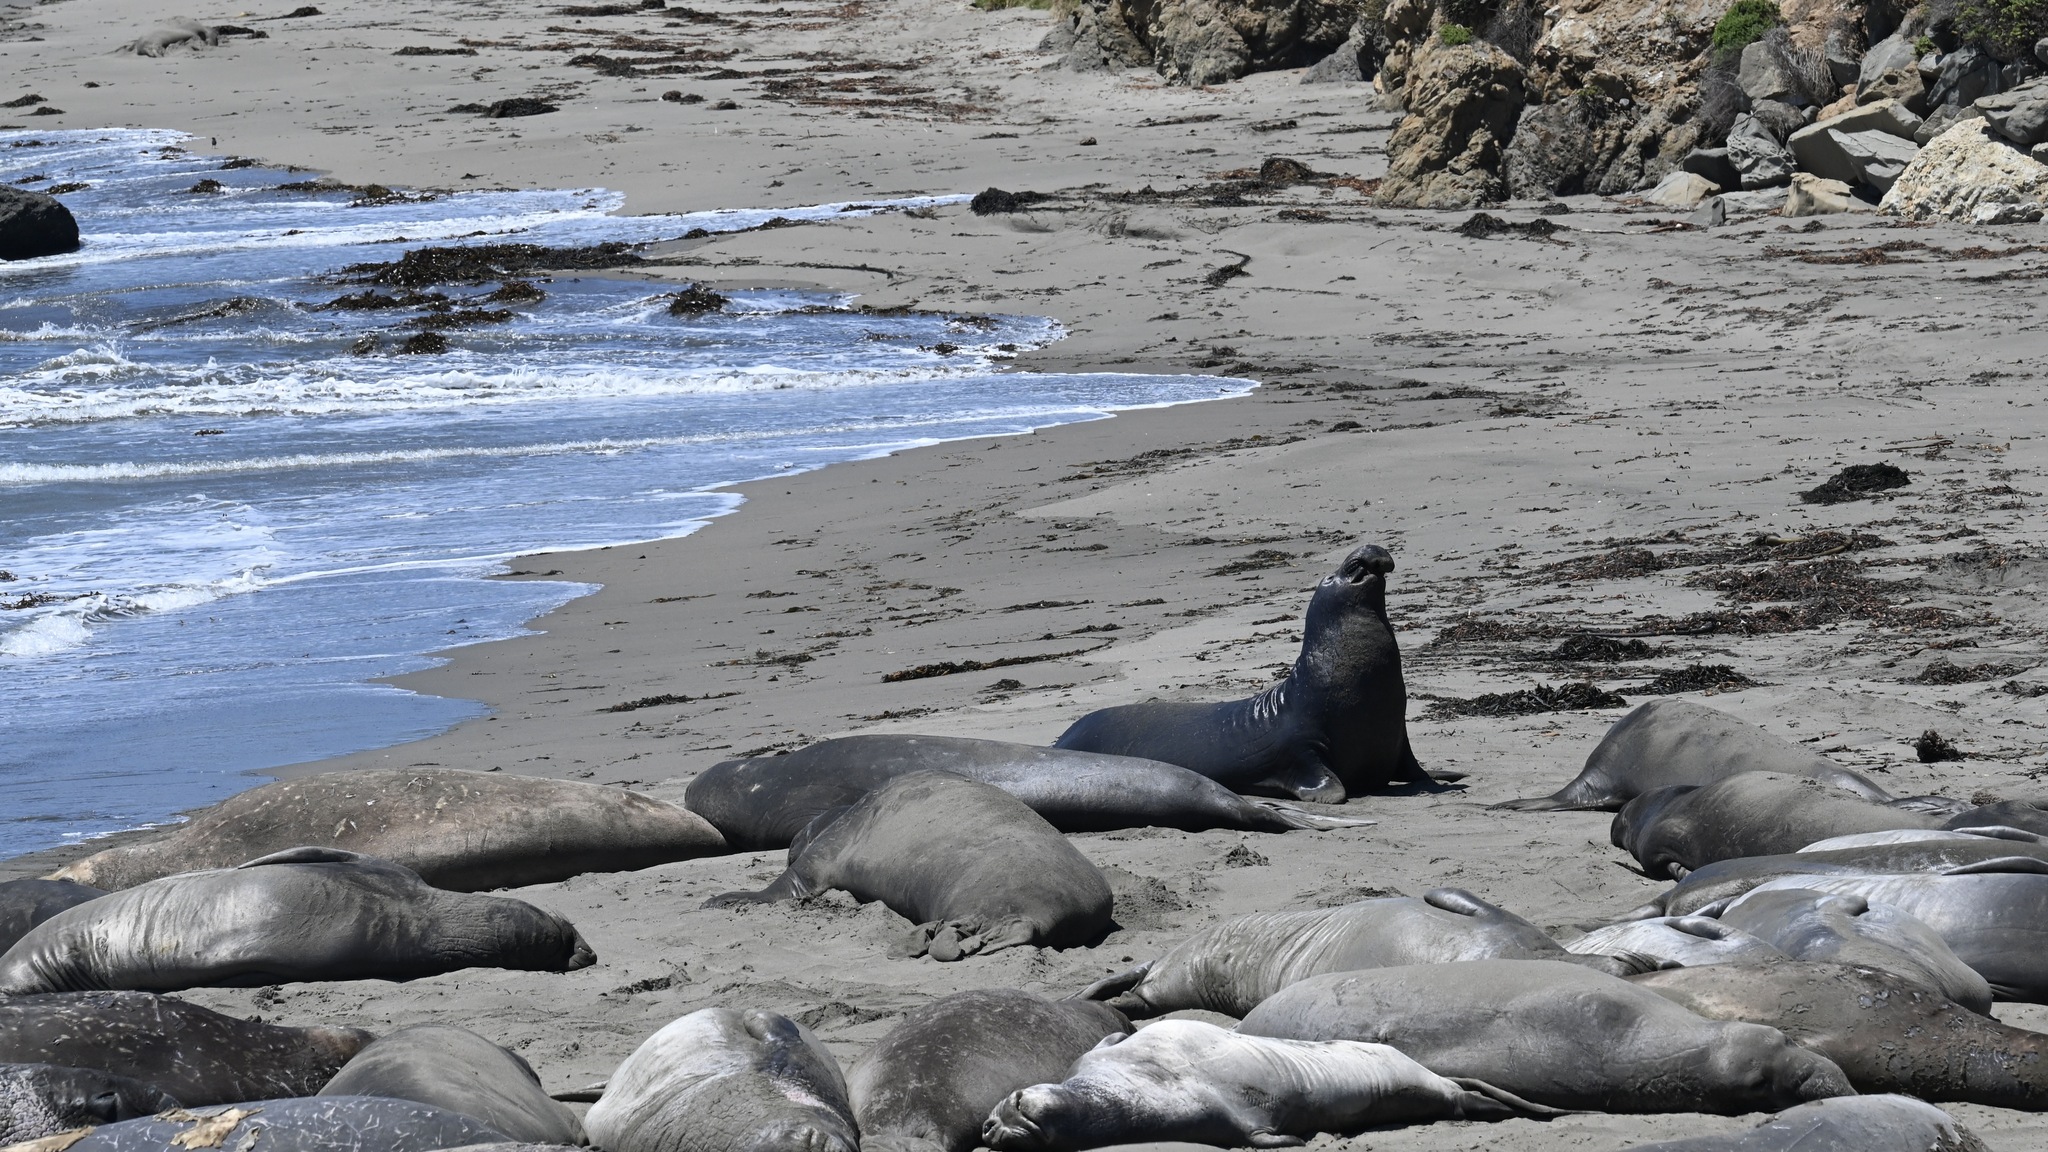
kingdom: Animalia
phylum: Chordata
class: Mammalia
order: Carnivora
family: Phocidae
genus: Mirounga
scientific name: Mirounga angustirostris
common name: Northern elephant seal
